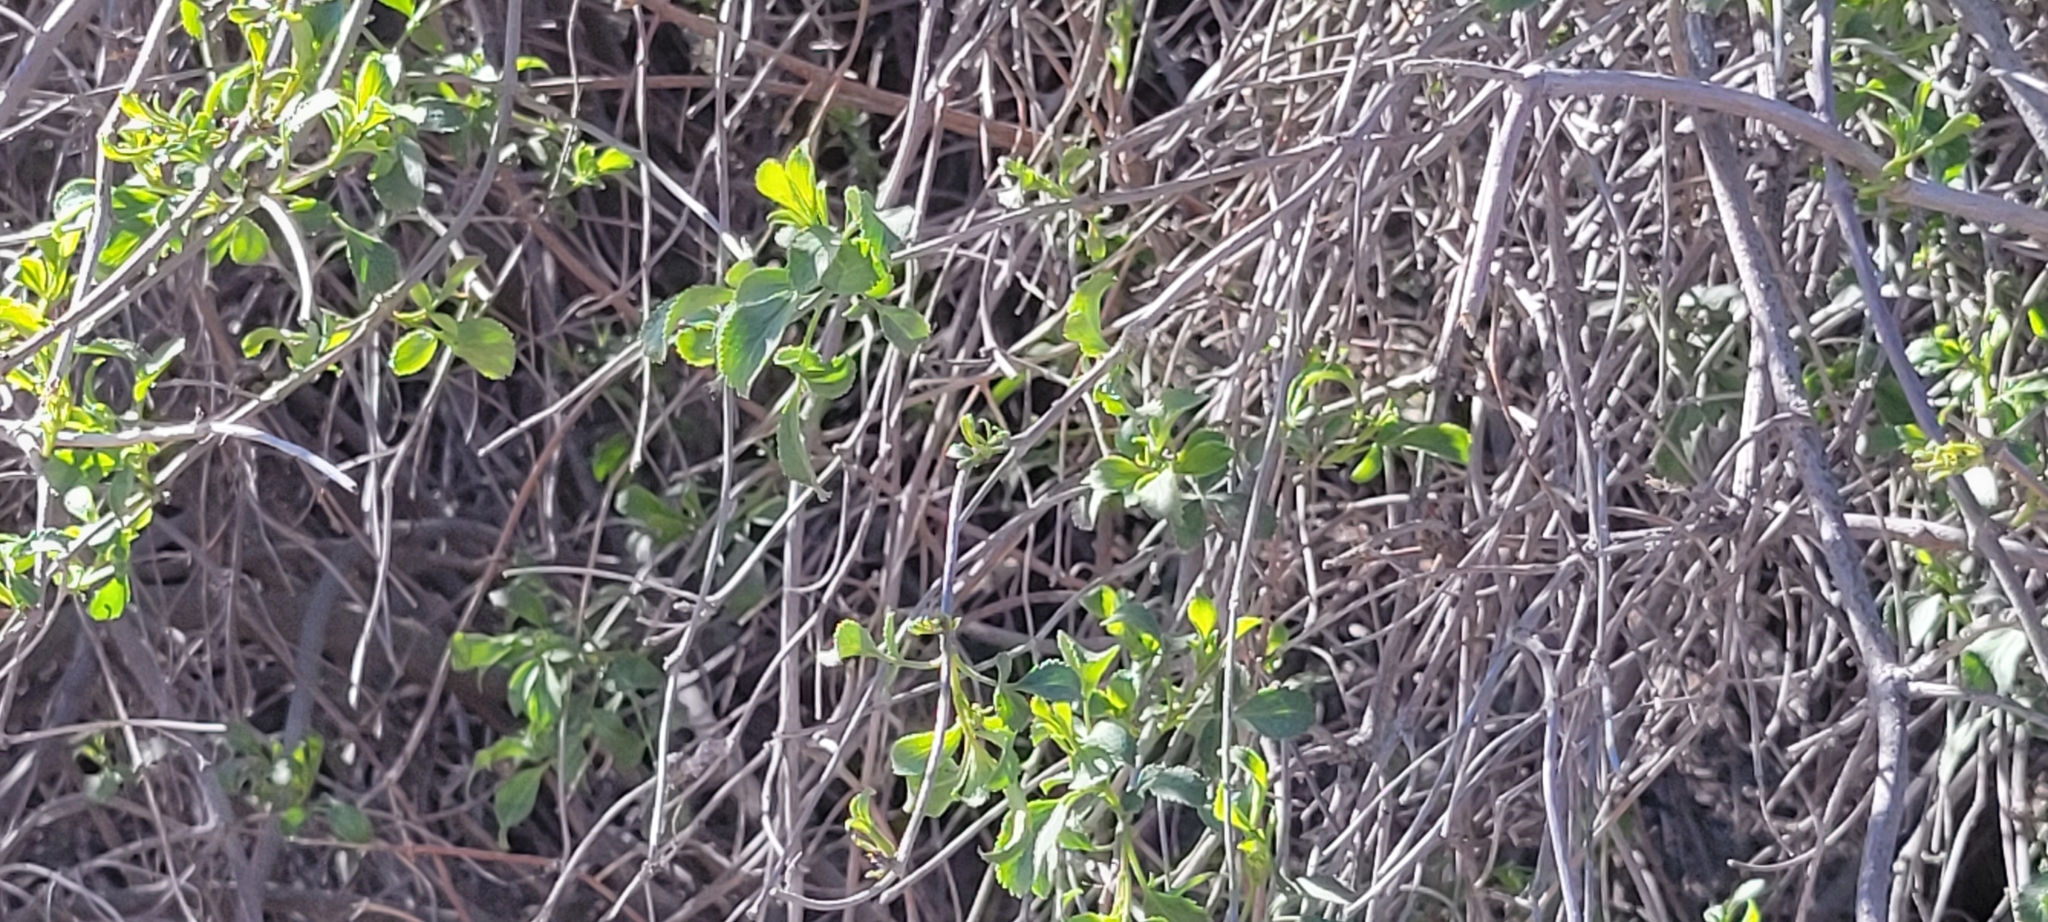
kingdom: Plantae
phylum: Tracheophyta
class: Magnoliopsida
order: Dipsacales
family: Viburnaceae
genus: Sambucus
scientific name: Sambucus cerulea
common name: Blue elder
